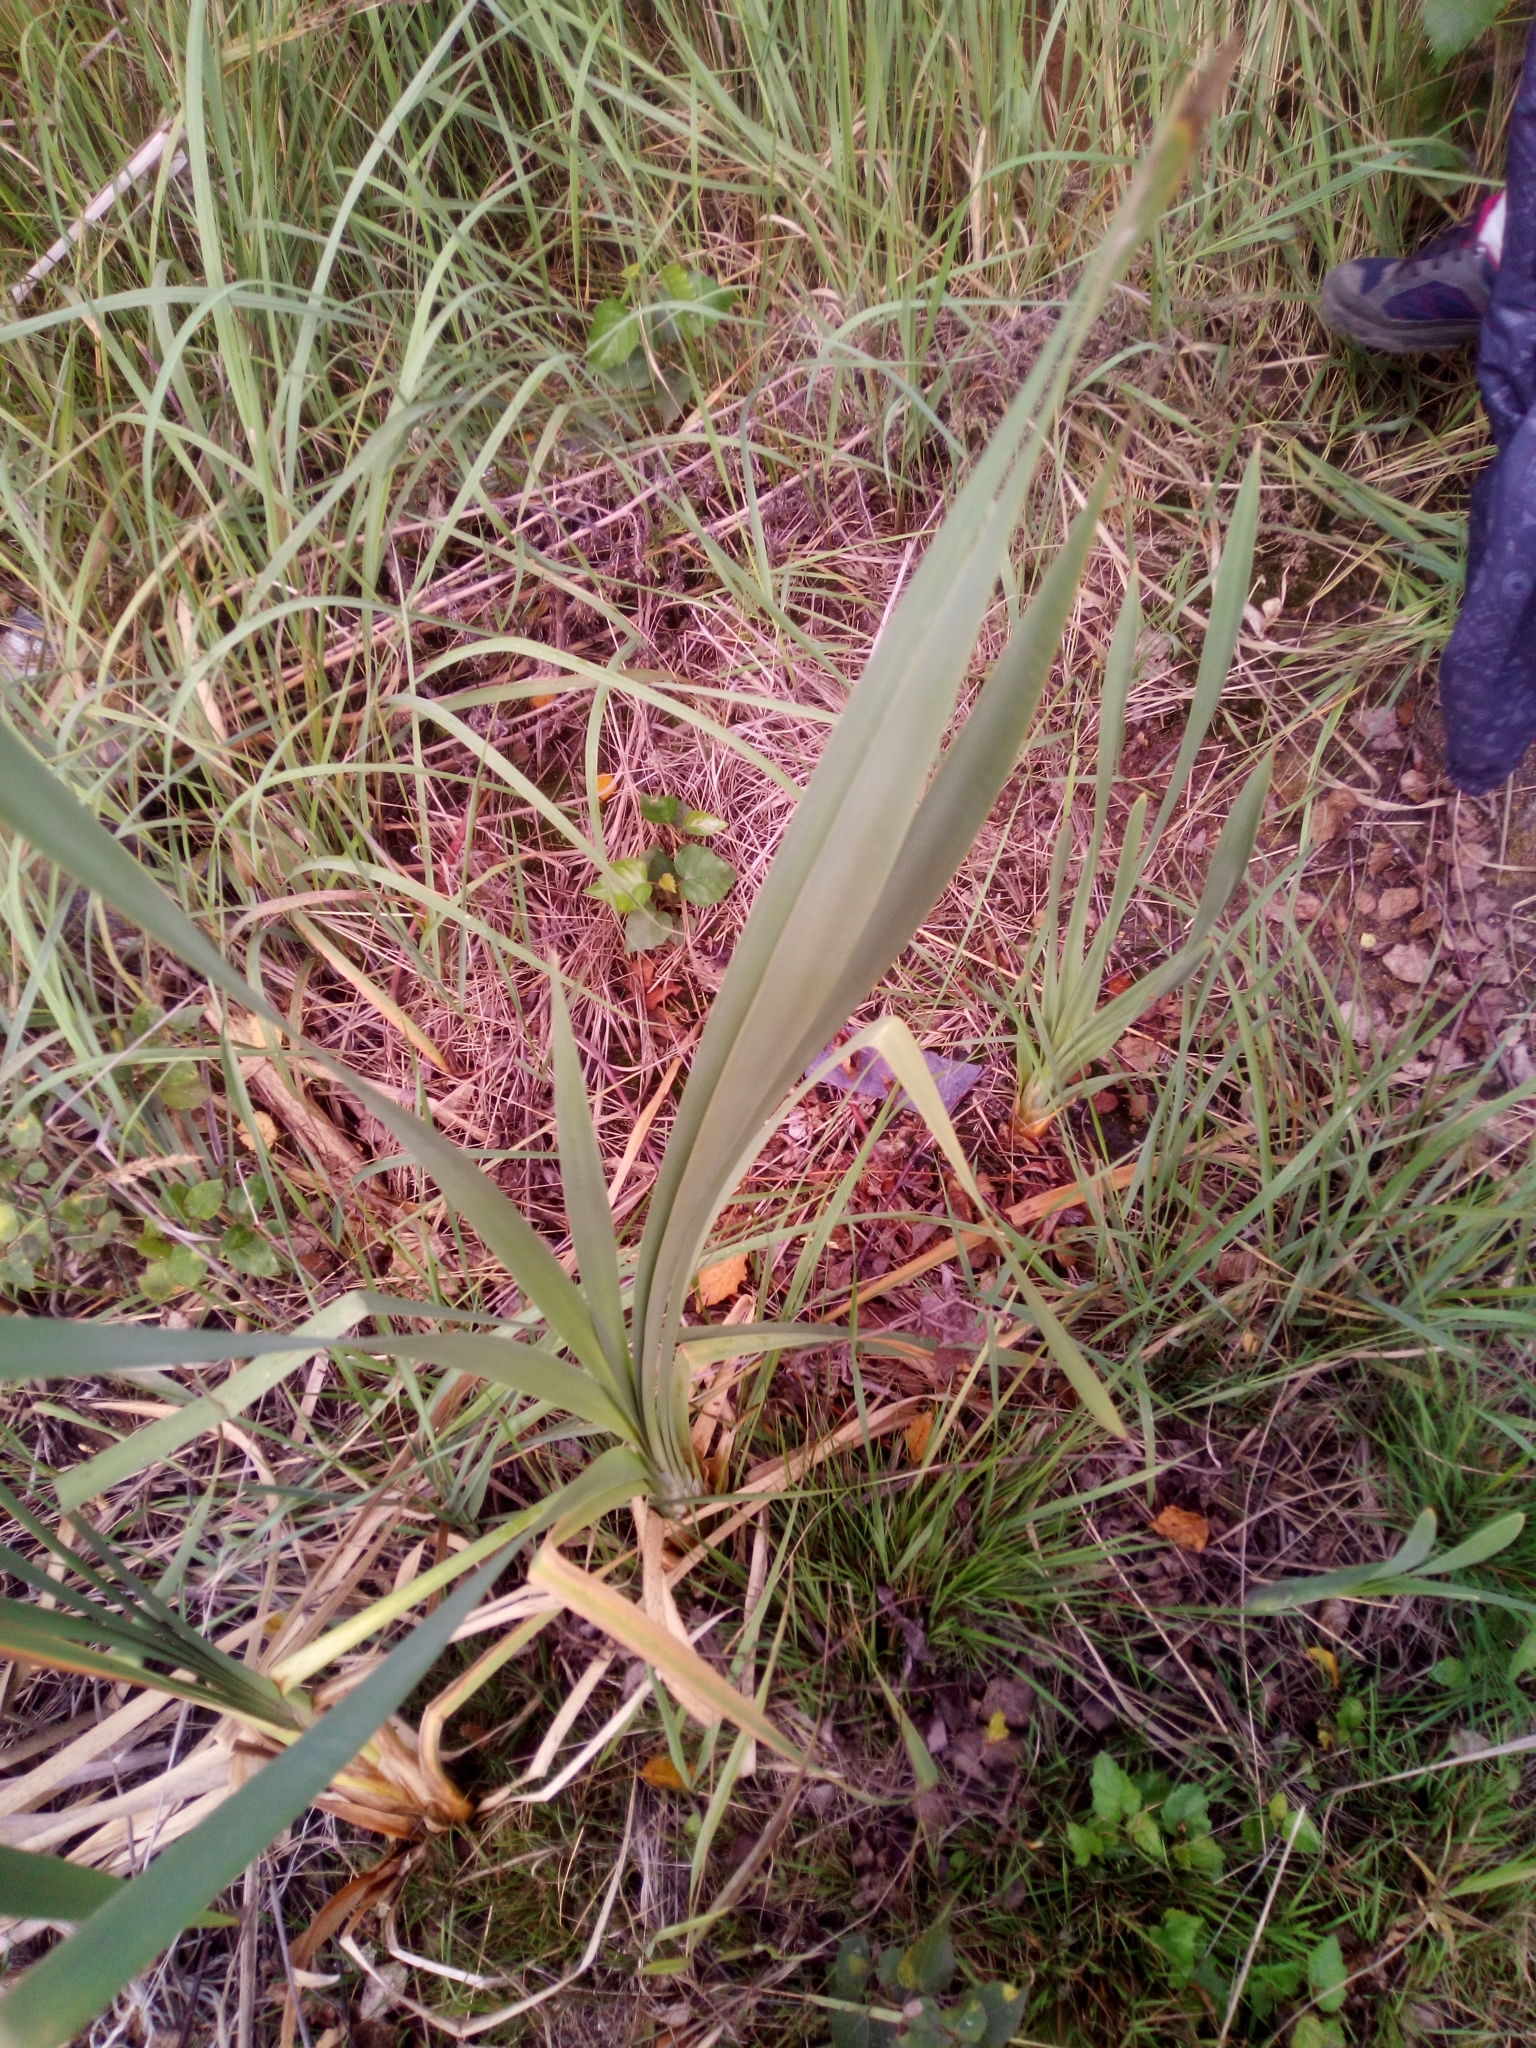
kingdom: Plantae
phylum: Tracheophyta
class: Liliopsida
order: Poales
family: Typhaceae
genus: Typha
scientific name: Typha latifolia
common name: Broadleaf cattail
